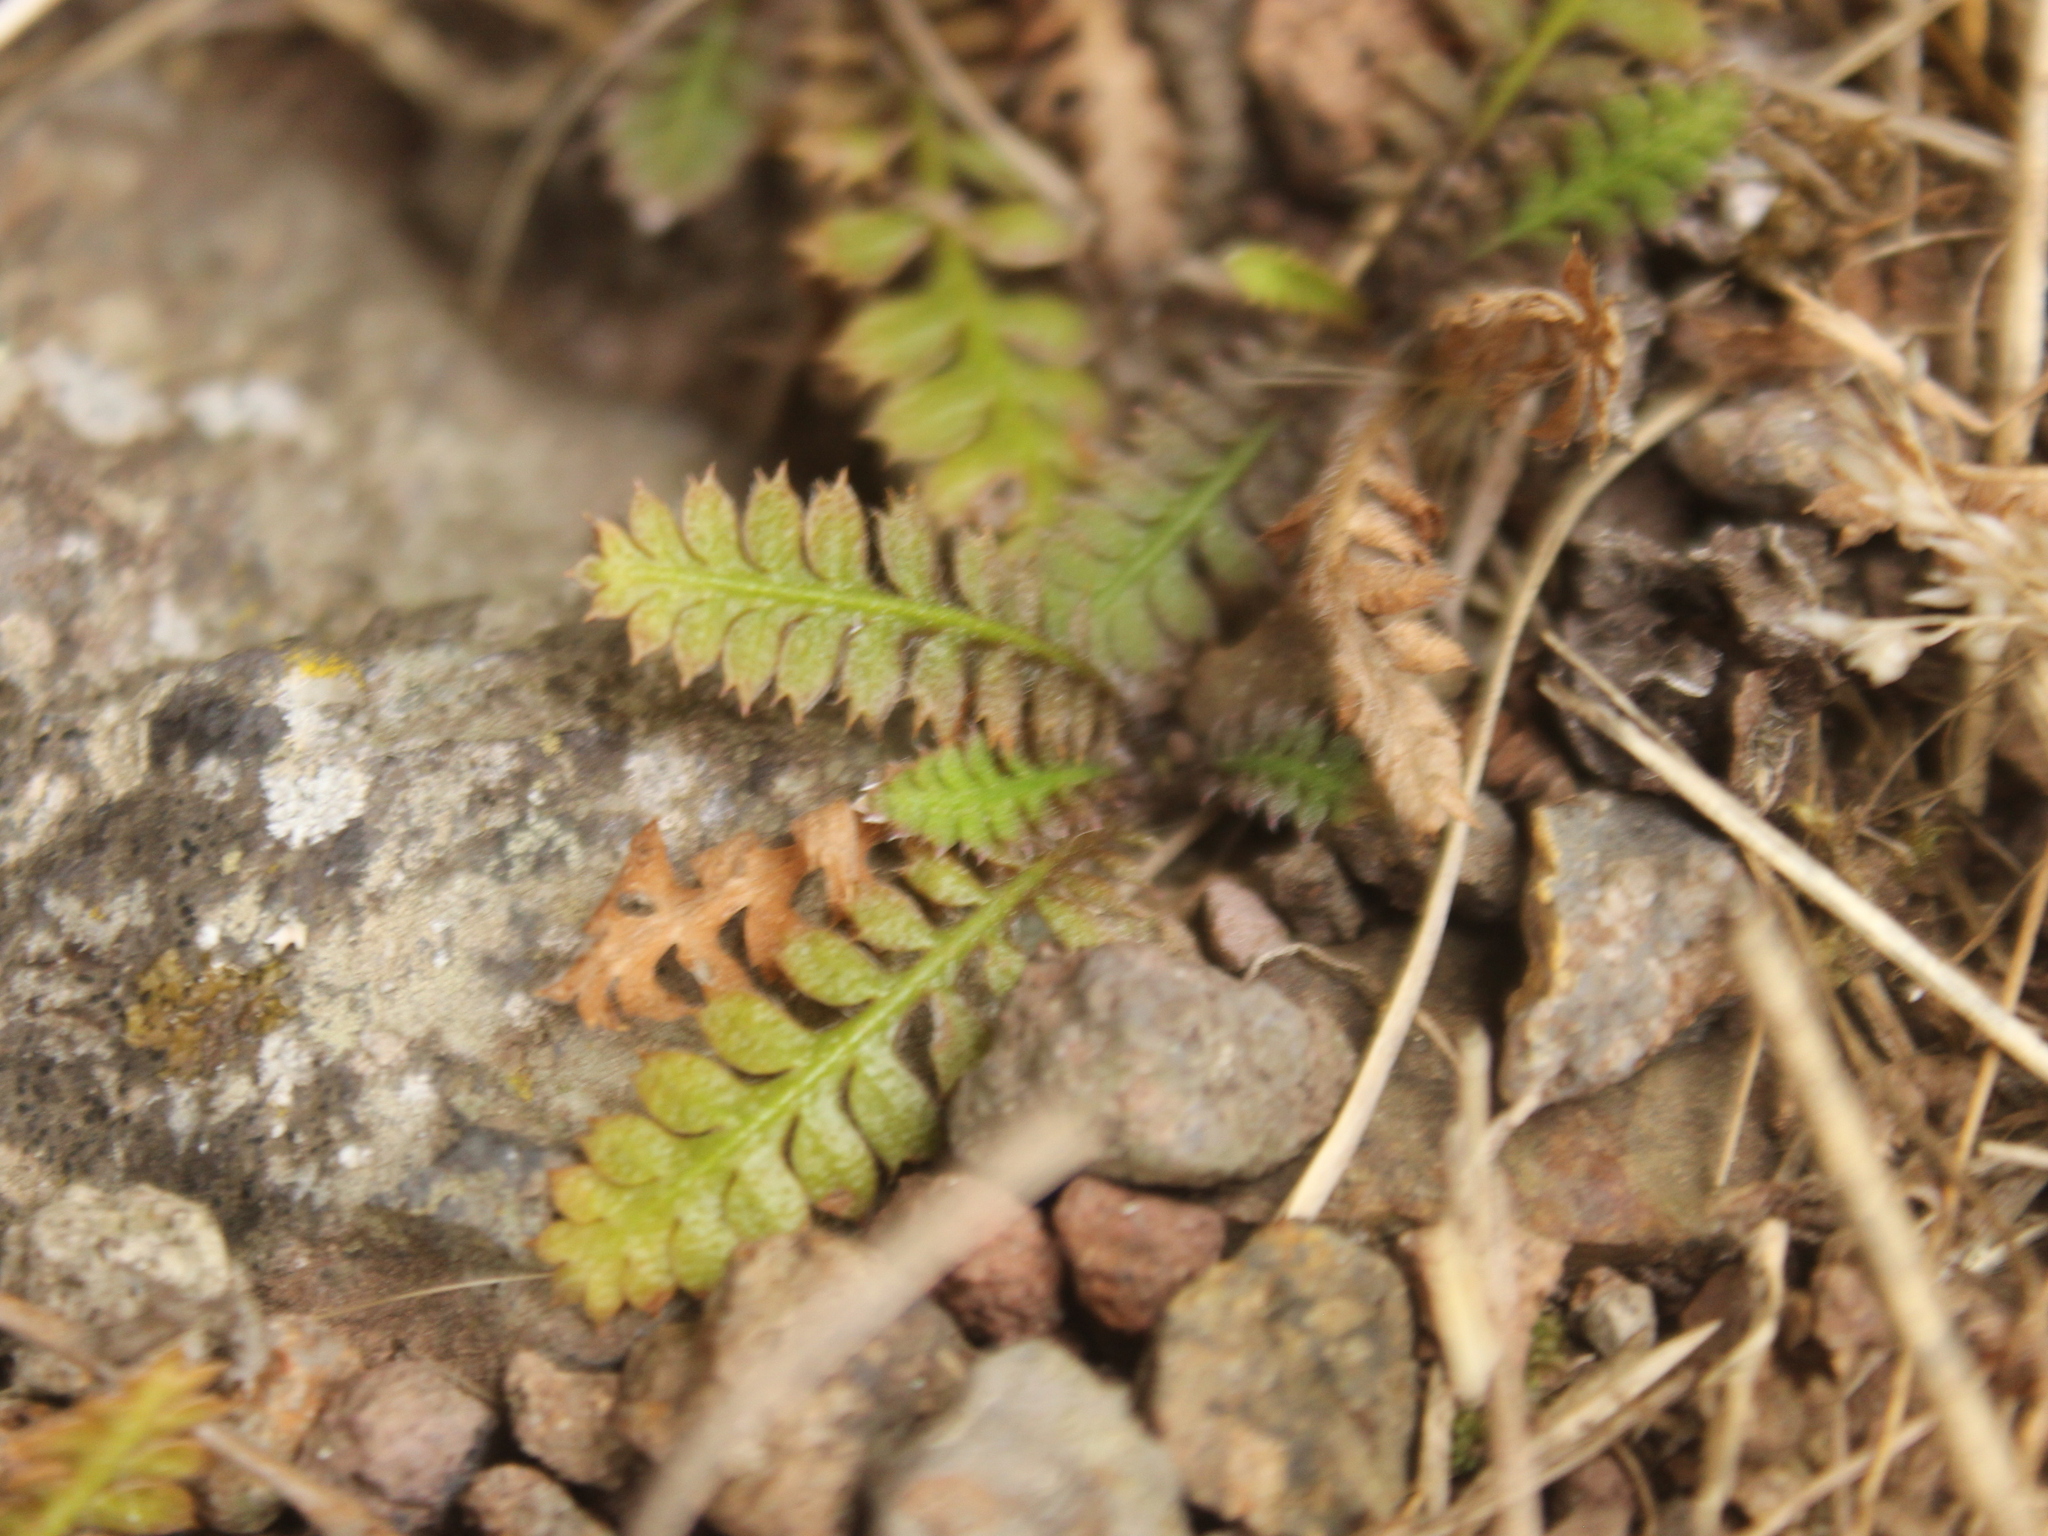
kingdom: Plantae
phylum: Tracheophyta
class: Magnoliopsida
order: Asterales
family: Asteraceae
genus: Leptinella
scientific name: Leptinella squalida
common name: New zealand brass-buttons
